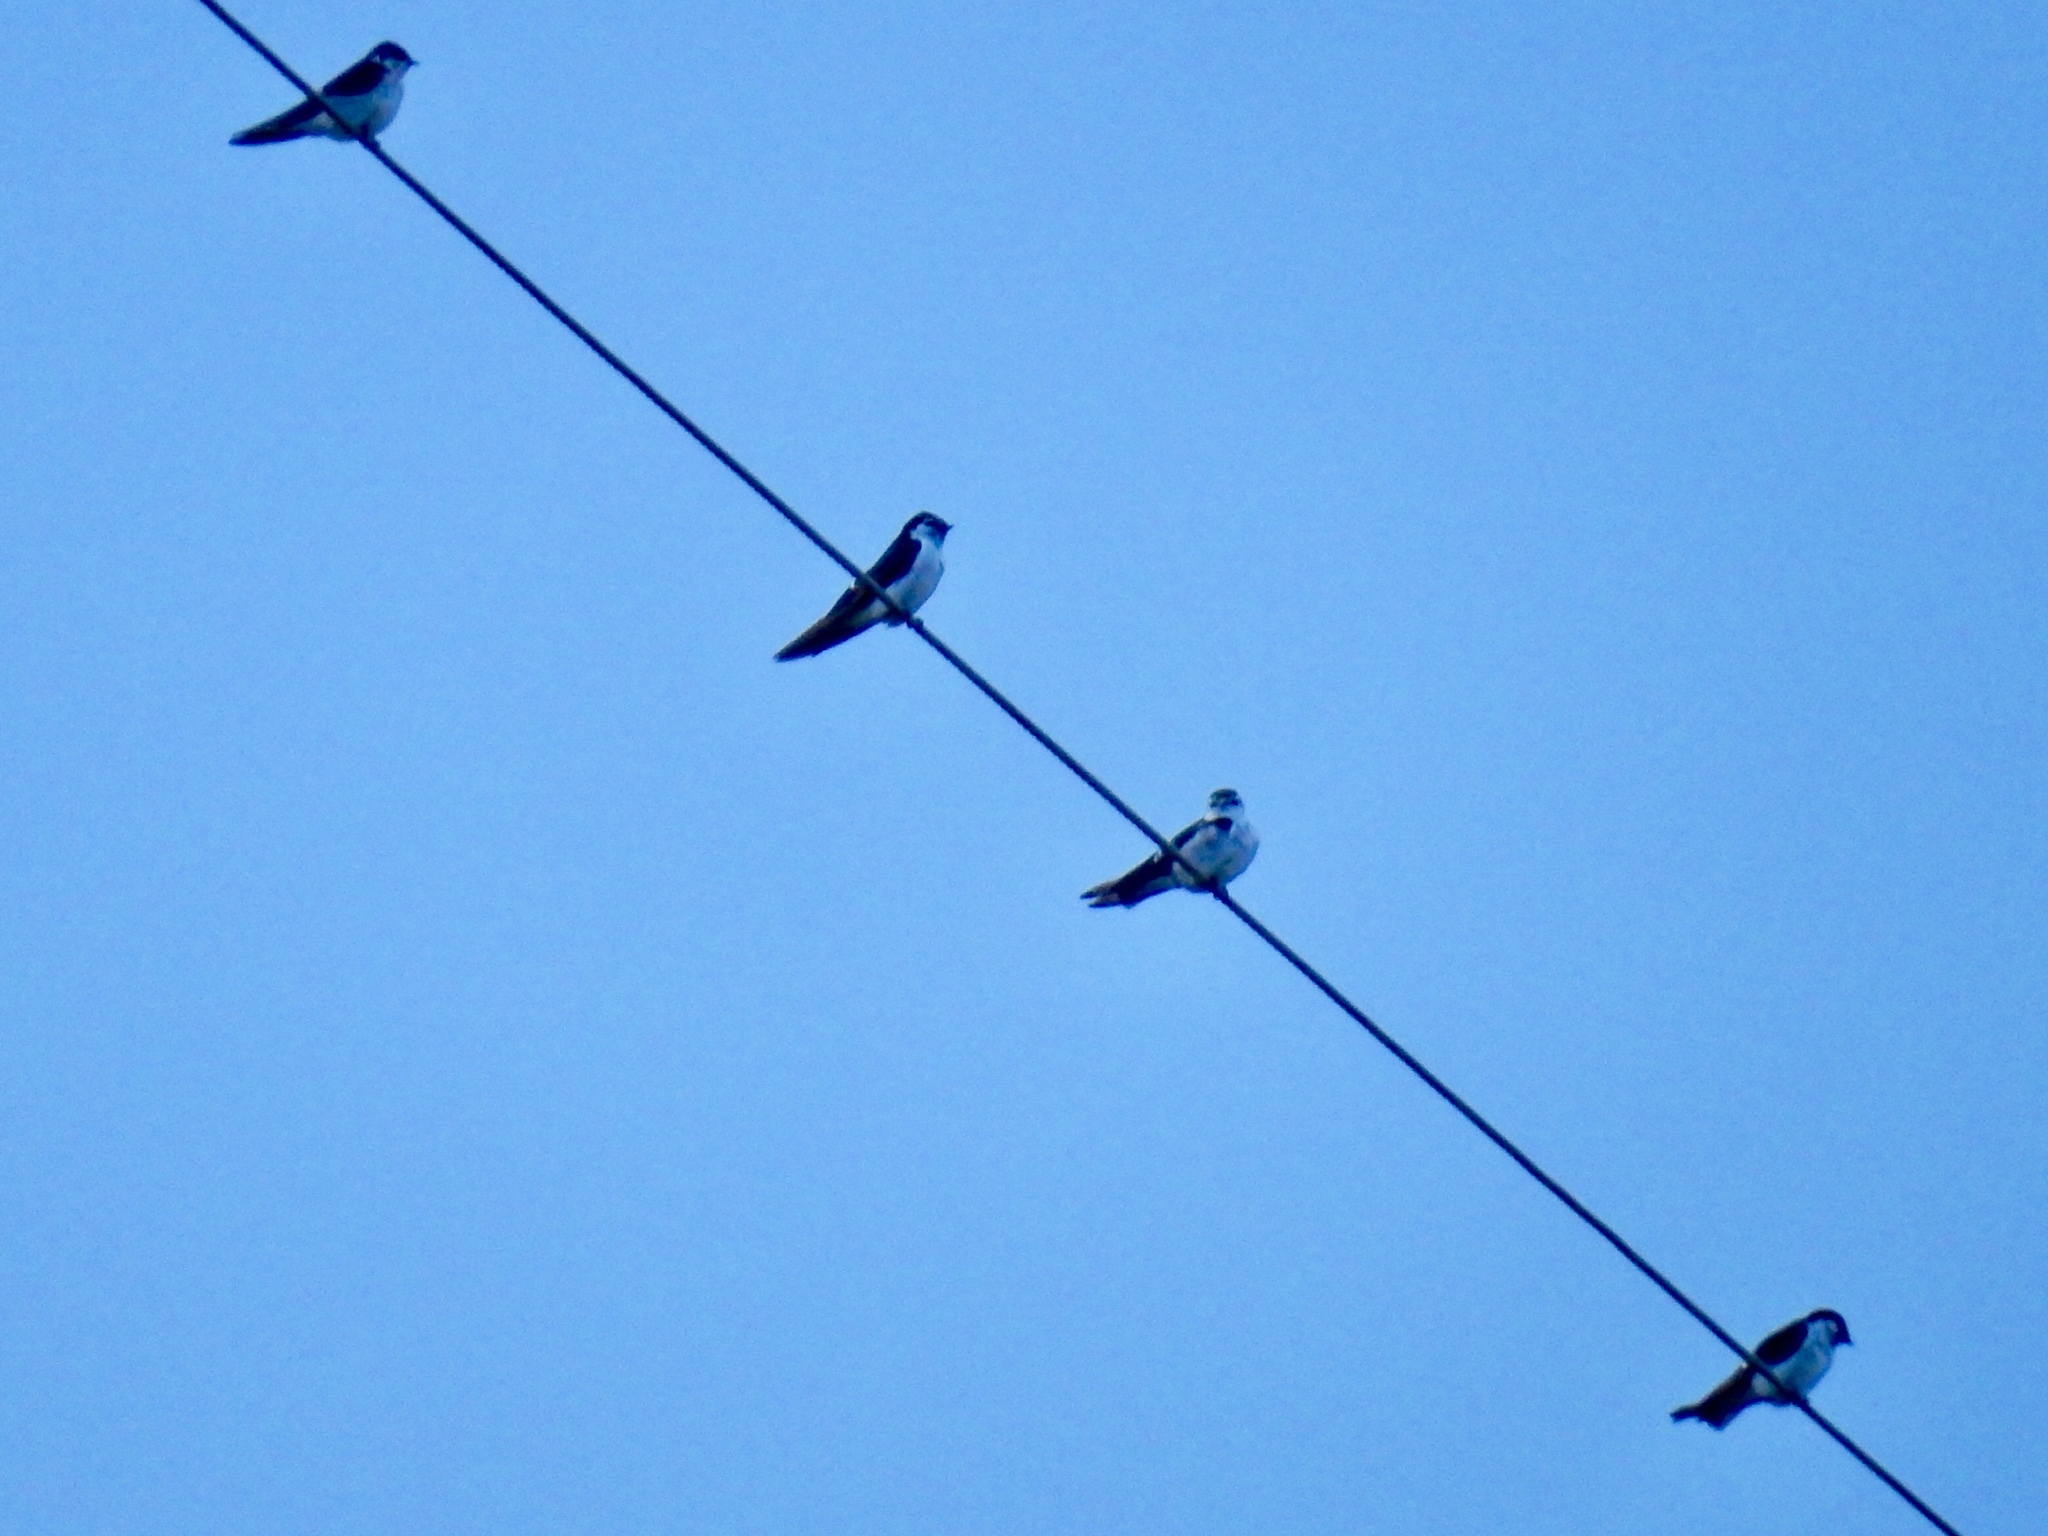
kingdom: Animalia
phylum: Chordata
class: Aves
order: Passeriformes
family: Hirundinidae
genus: Tachycineta
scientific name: Tachycineta thalassina
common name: Violet-green swallow
